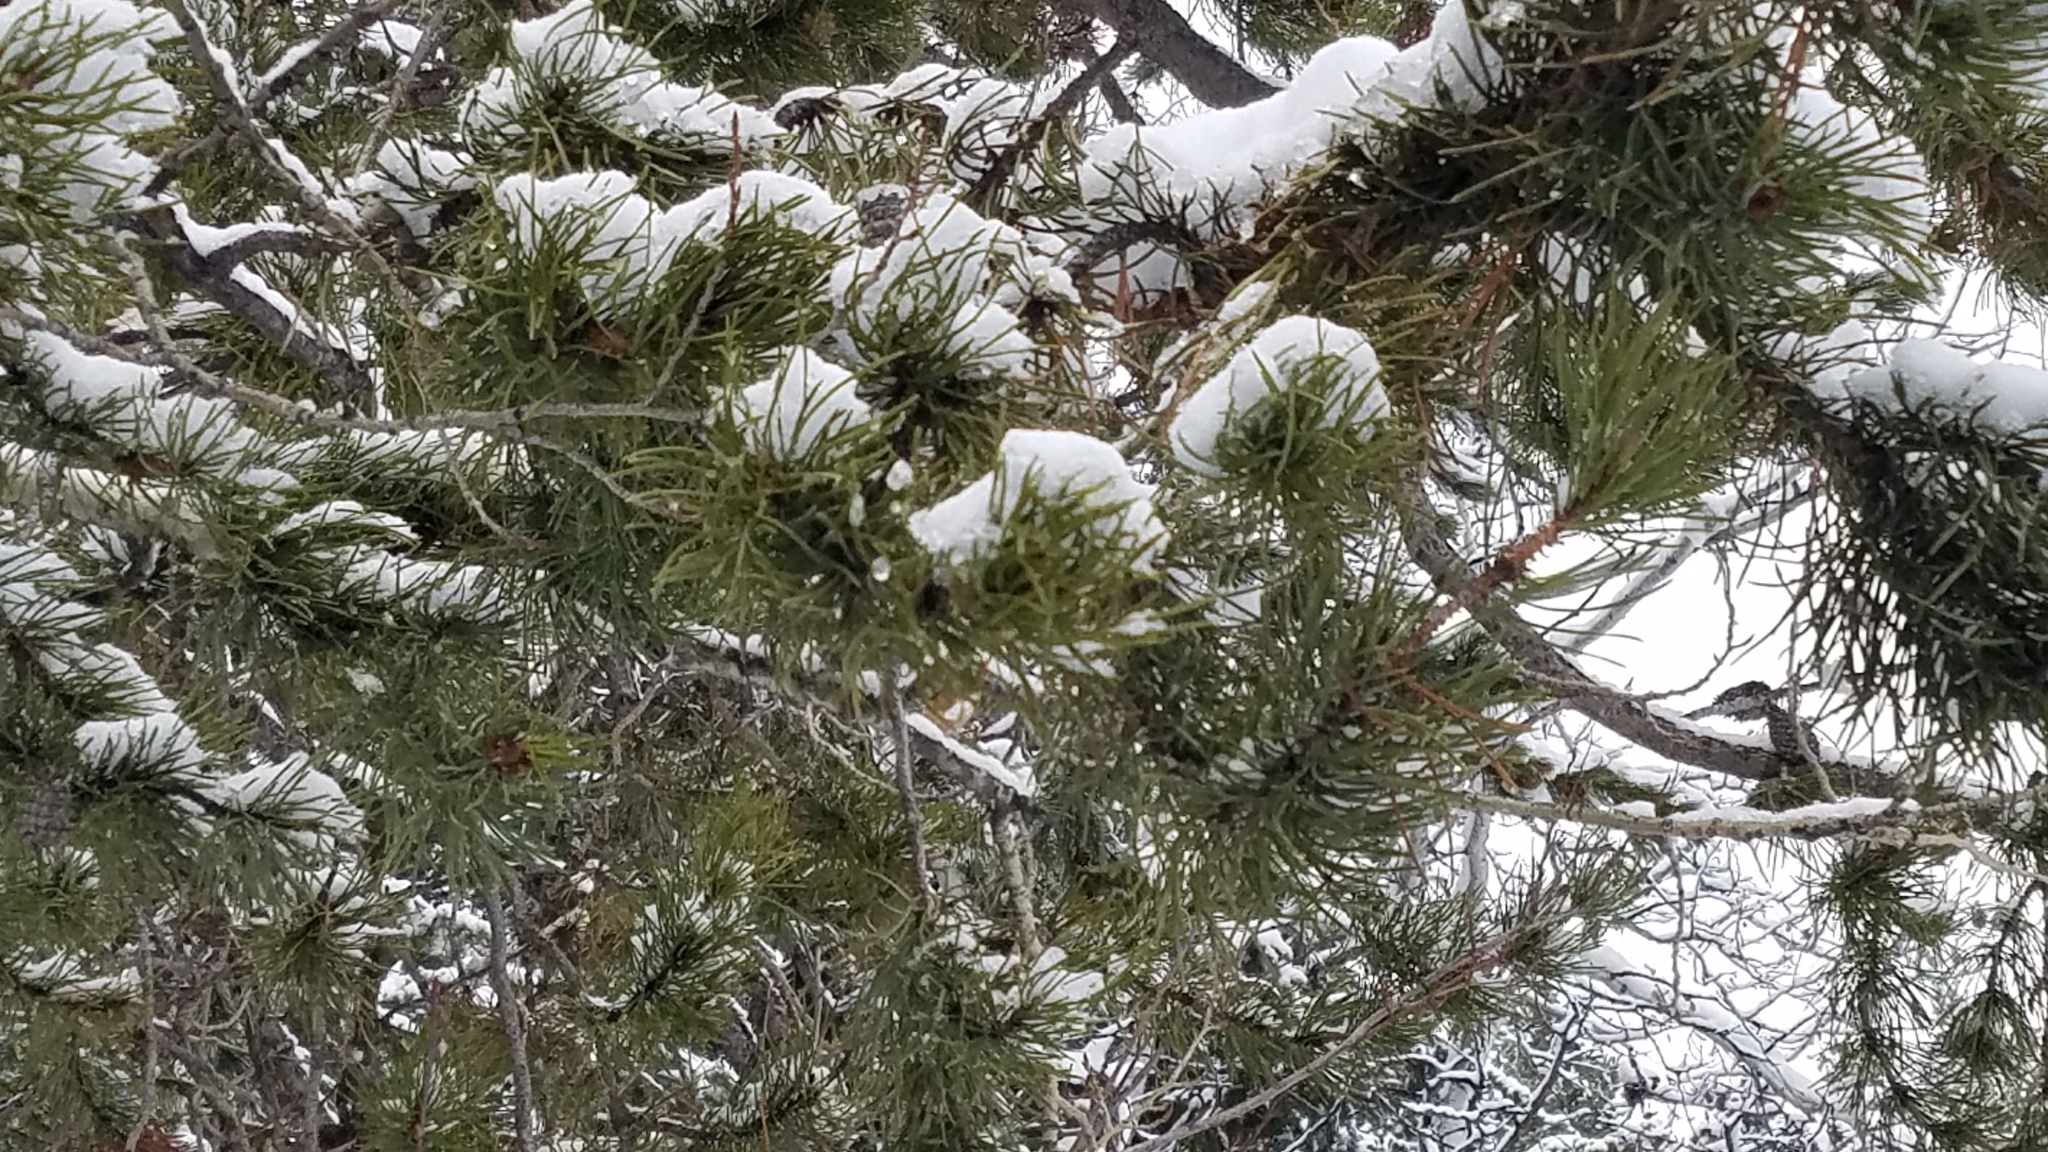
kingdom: Plantae
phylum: Tracheophyta
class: Pinopsida
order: Pinales
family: Pinaceae
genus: Pinus
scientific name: Pinus contorta
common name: Lodgepole pine
